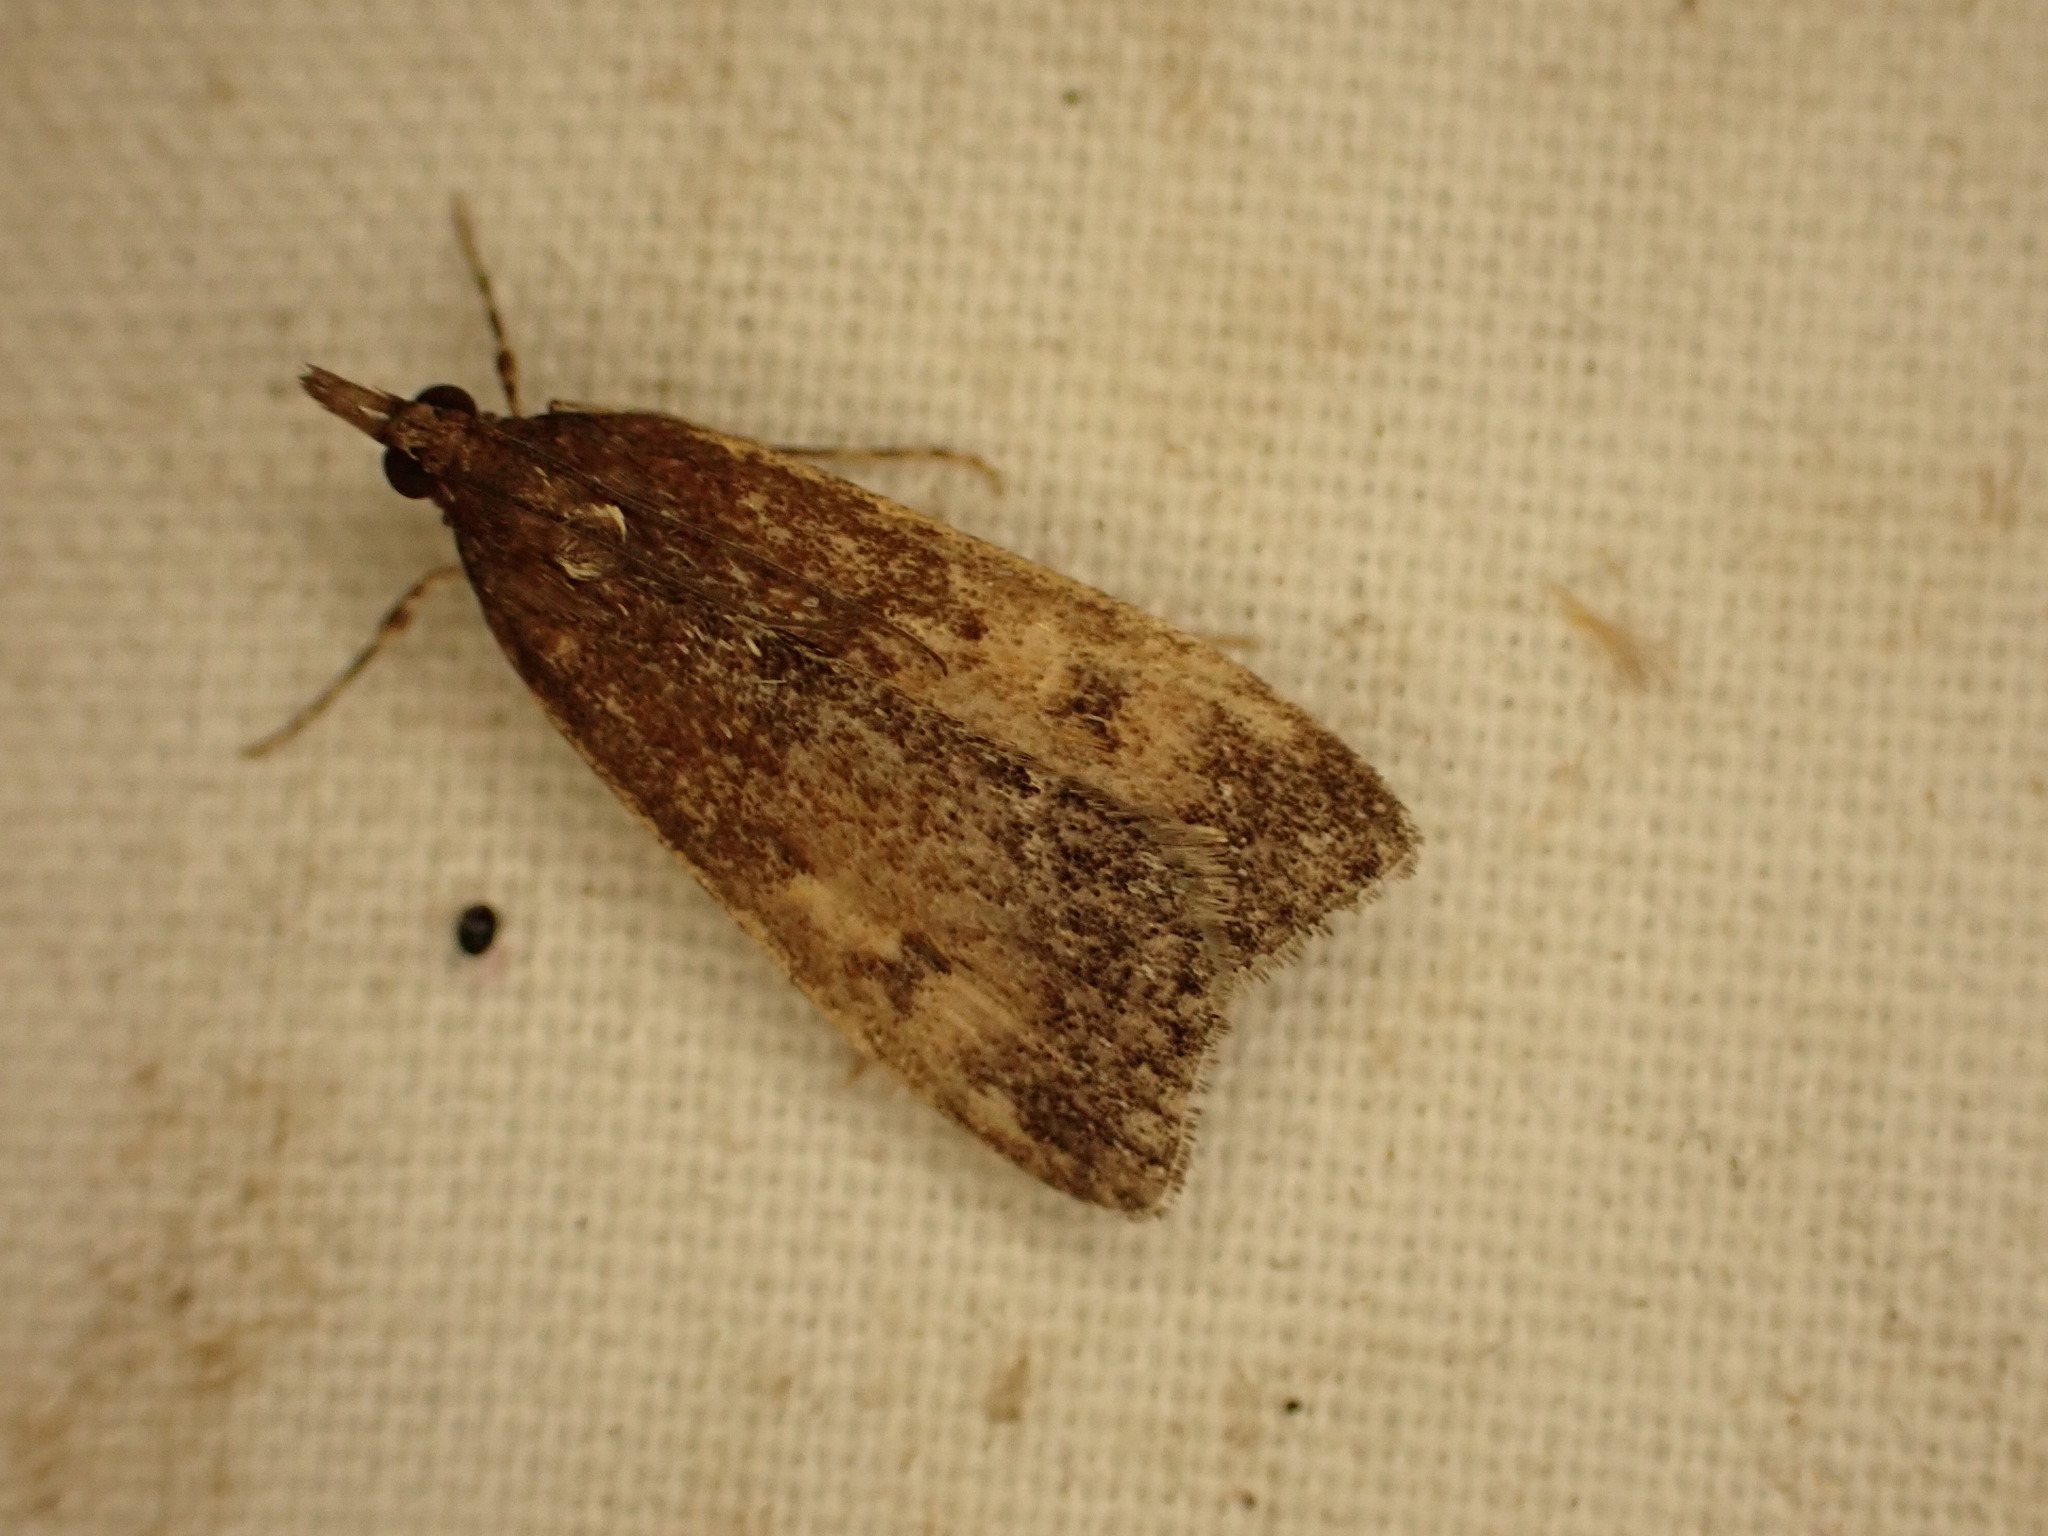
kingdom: Animalia
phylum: Arthropoda
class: Insecta
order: Lepidoptera
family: Crambidae
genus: Eudonia
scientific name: Eudonia asterisca
